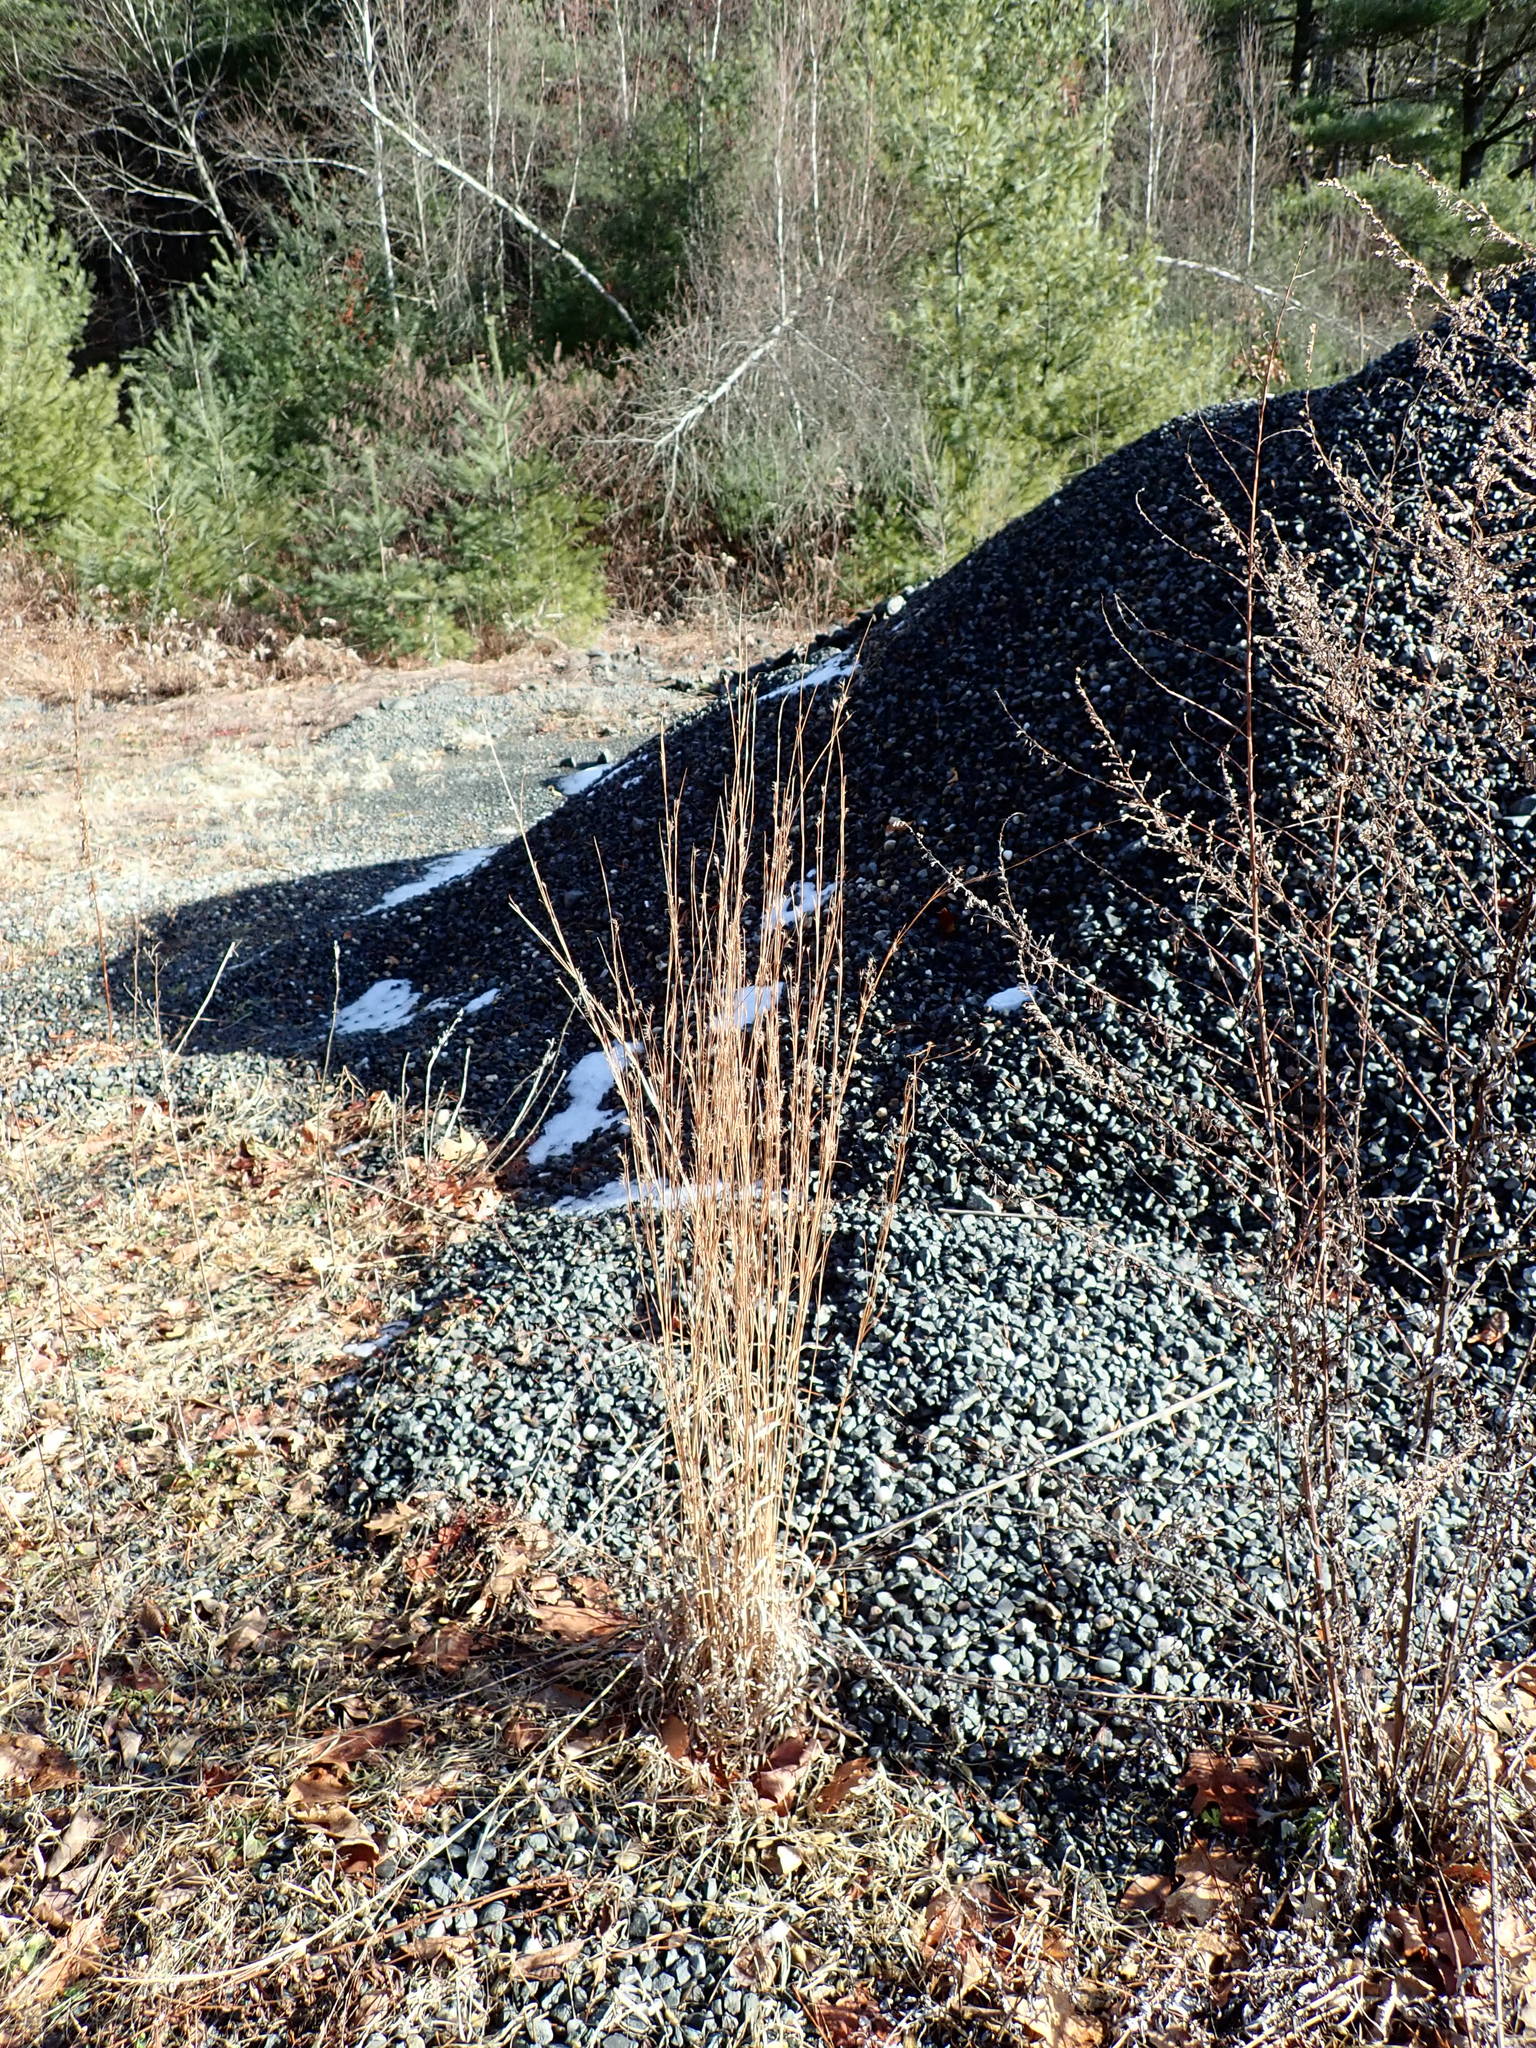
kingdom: Plantae
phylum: Tracheophyta
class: Liliopsida
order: Poales
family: Poaceae
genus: Schizachyrium
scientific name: Schizachyrium scoparium
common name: Little bluestem
